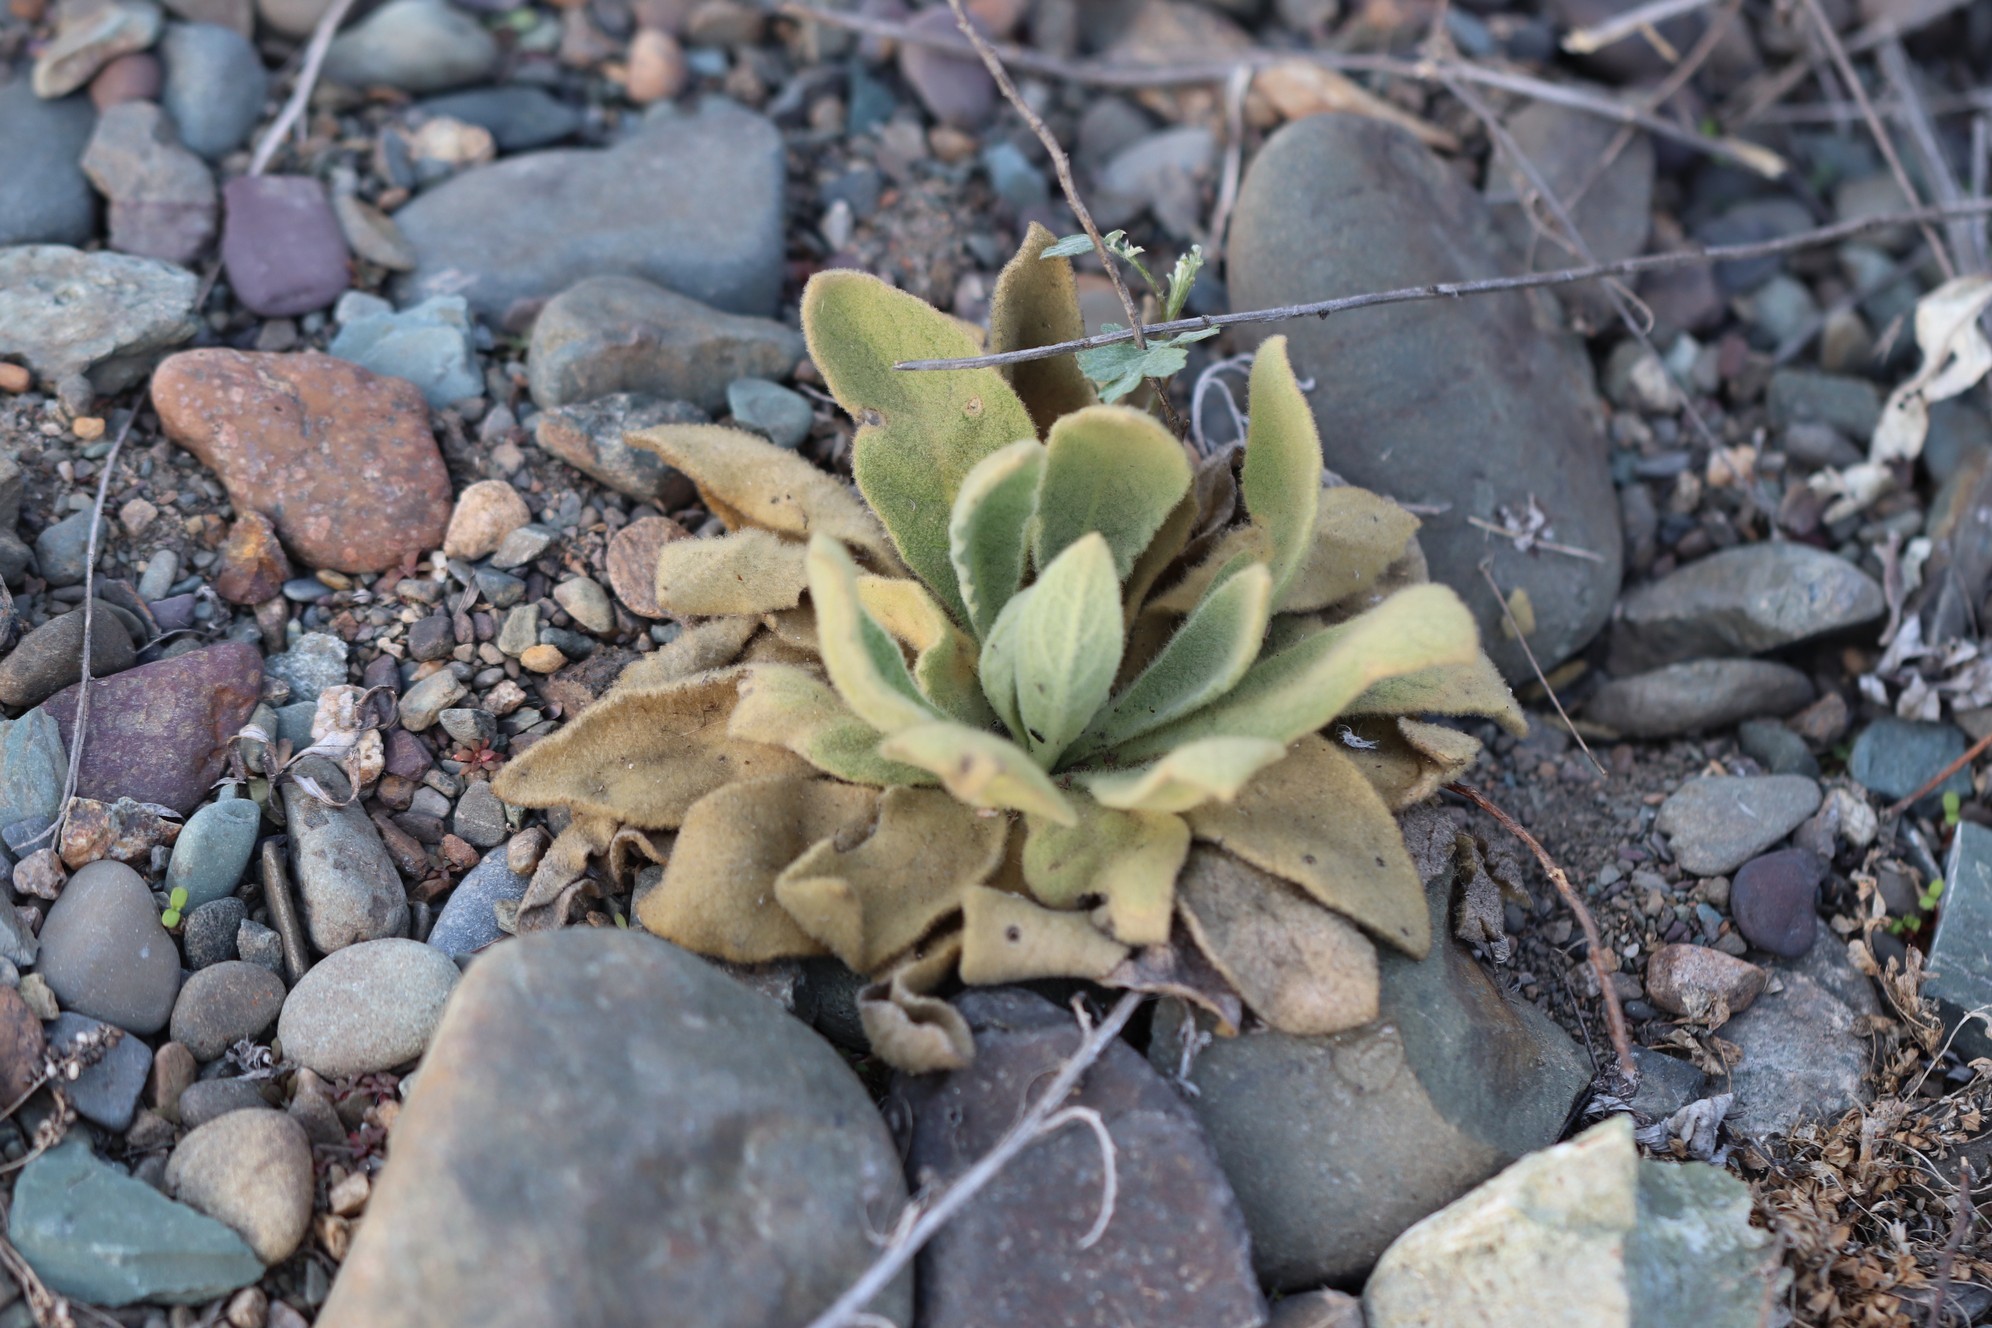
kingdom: Plantae
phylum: Tracheophyta
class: Magnoliopsida
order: Lamiales
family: Scrophulariaceae
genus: Verbascum
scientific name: Verbascum thapsus
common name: Common mullein
